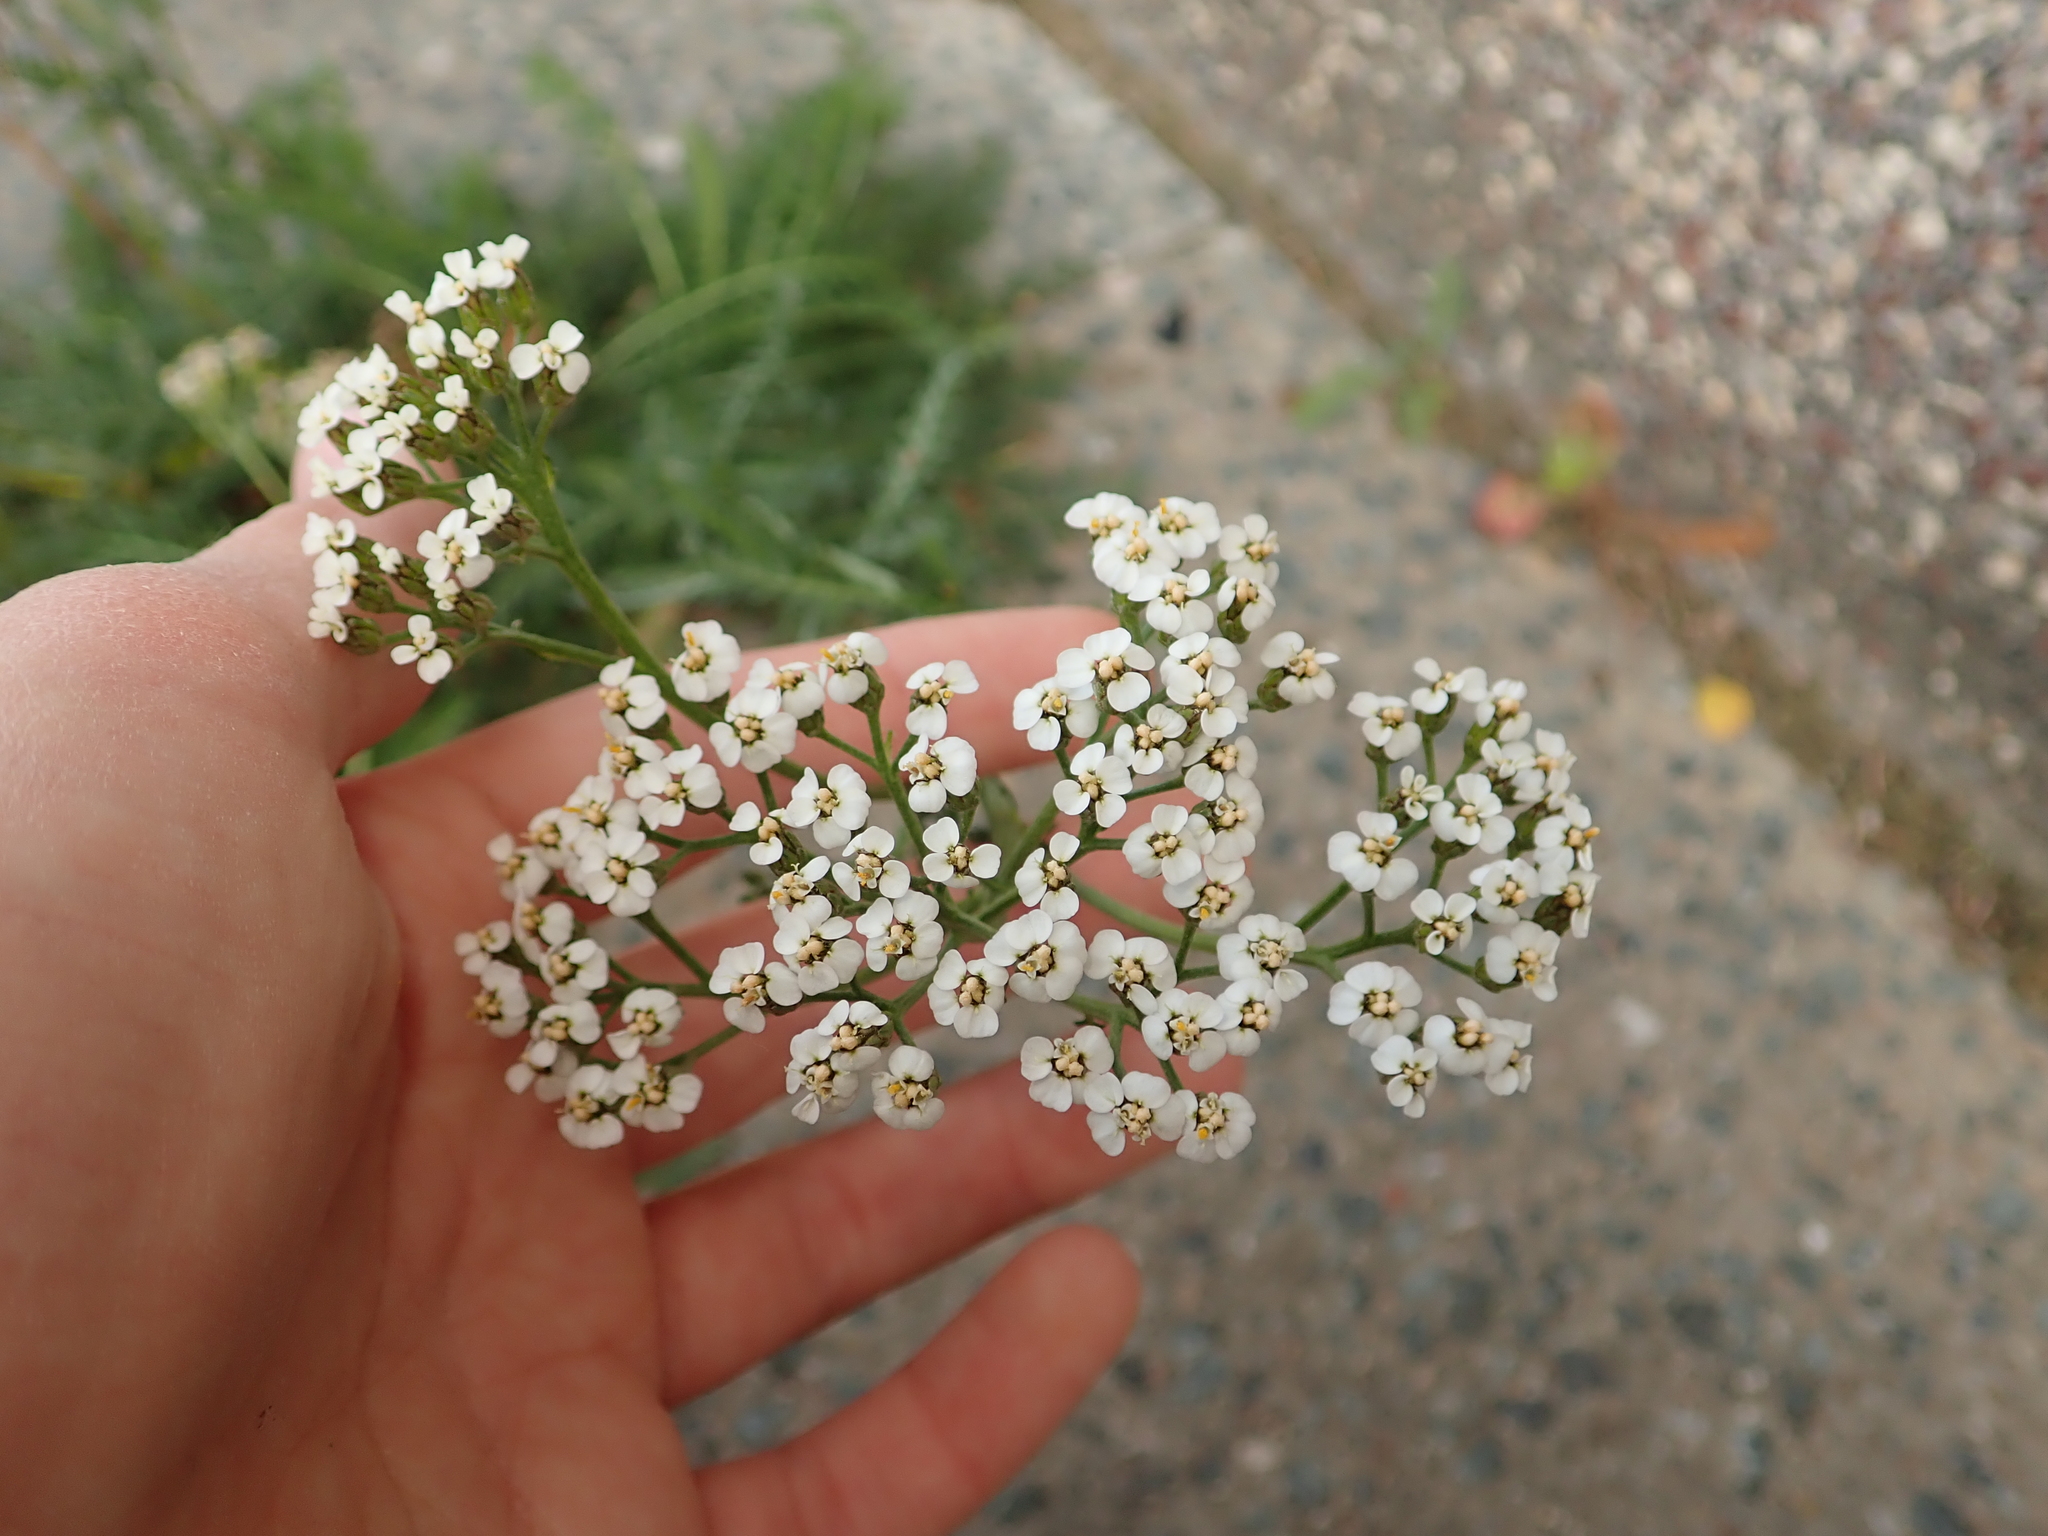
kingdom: Plantae
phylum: Tracheophyta
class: Magnoliopsida
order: Asterales
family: Asteraceae
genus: Achillea
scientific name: Achillea millefolium
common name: Yarrow
